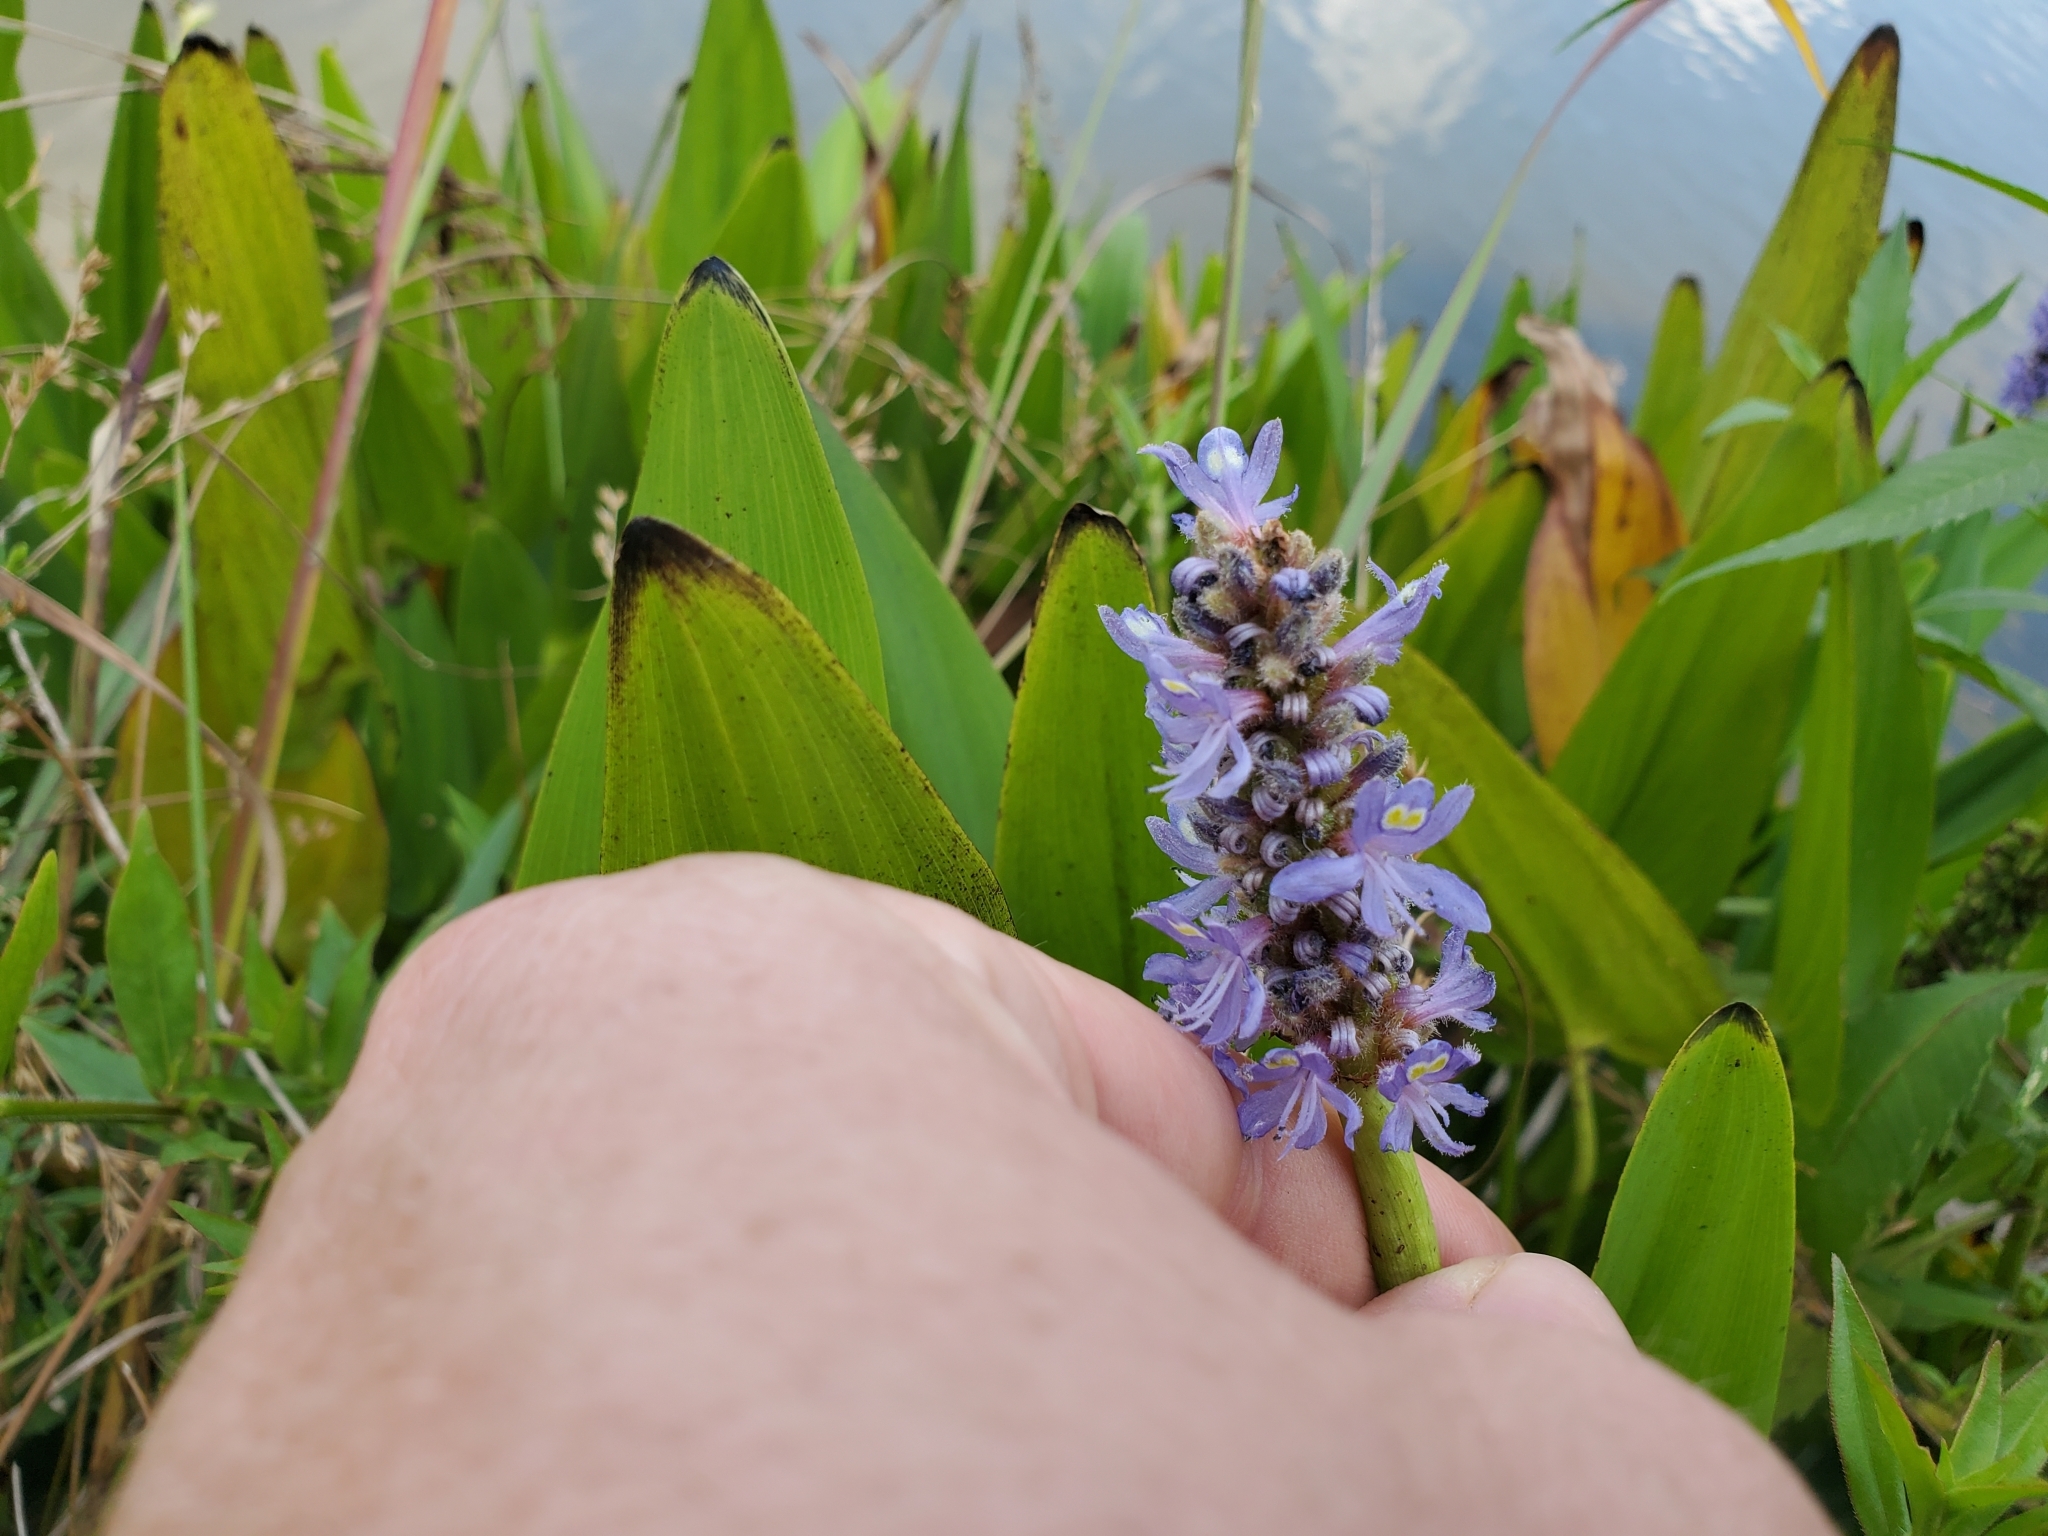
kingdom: Plantae
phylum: Tracheophyta
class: Liliopsida
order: Commelinales
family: Pontederiaceae
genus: Pontederia
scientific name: Pontederia cordata
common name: Pickerelweed
